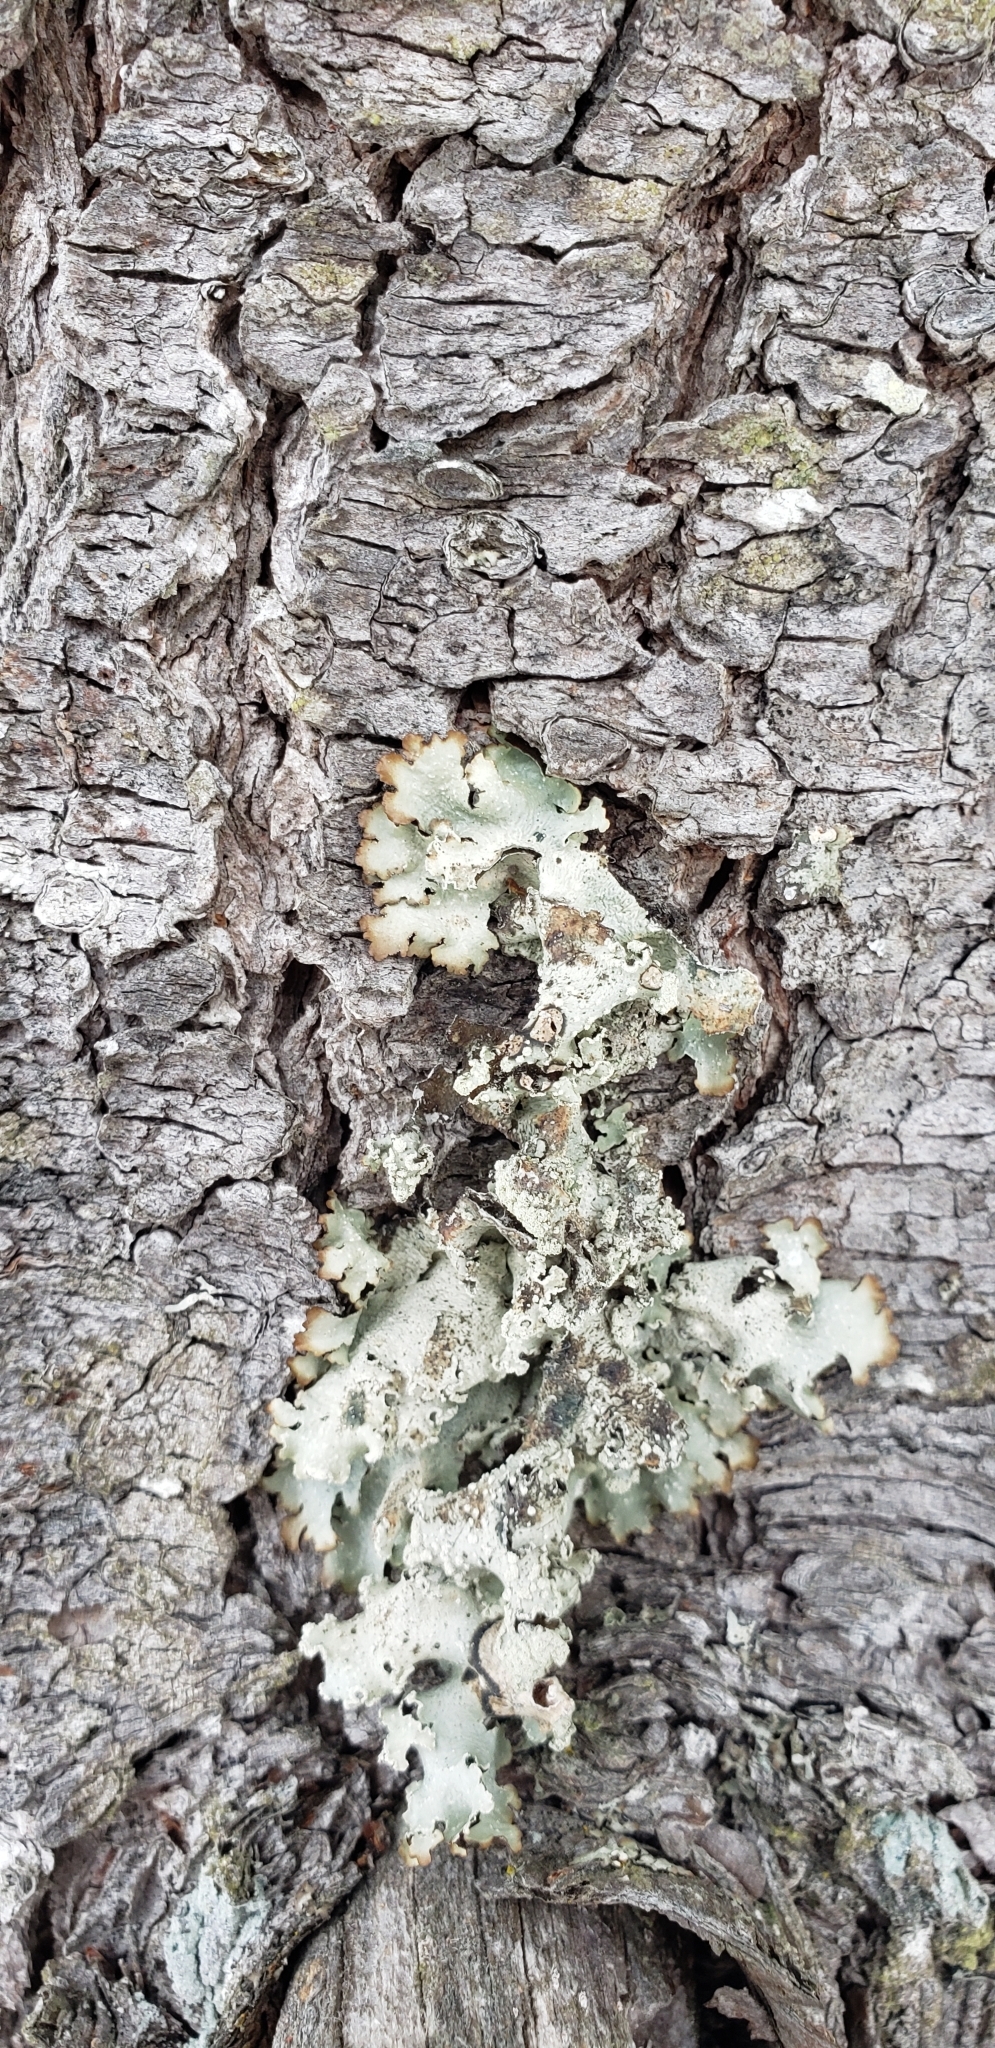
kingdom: Fungi
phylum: Ascomycota
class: Lecanoromycetes
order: Lecanorales
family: Parmeliaceae
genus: Punctelia
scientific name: Punctelia caseana
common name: Moondust speckled lichen
